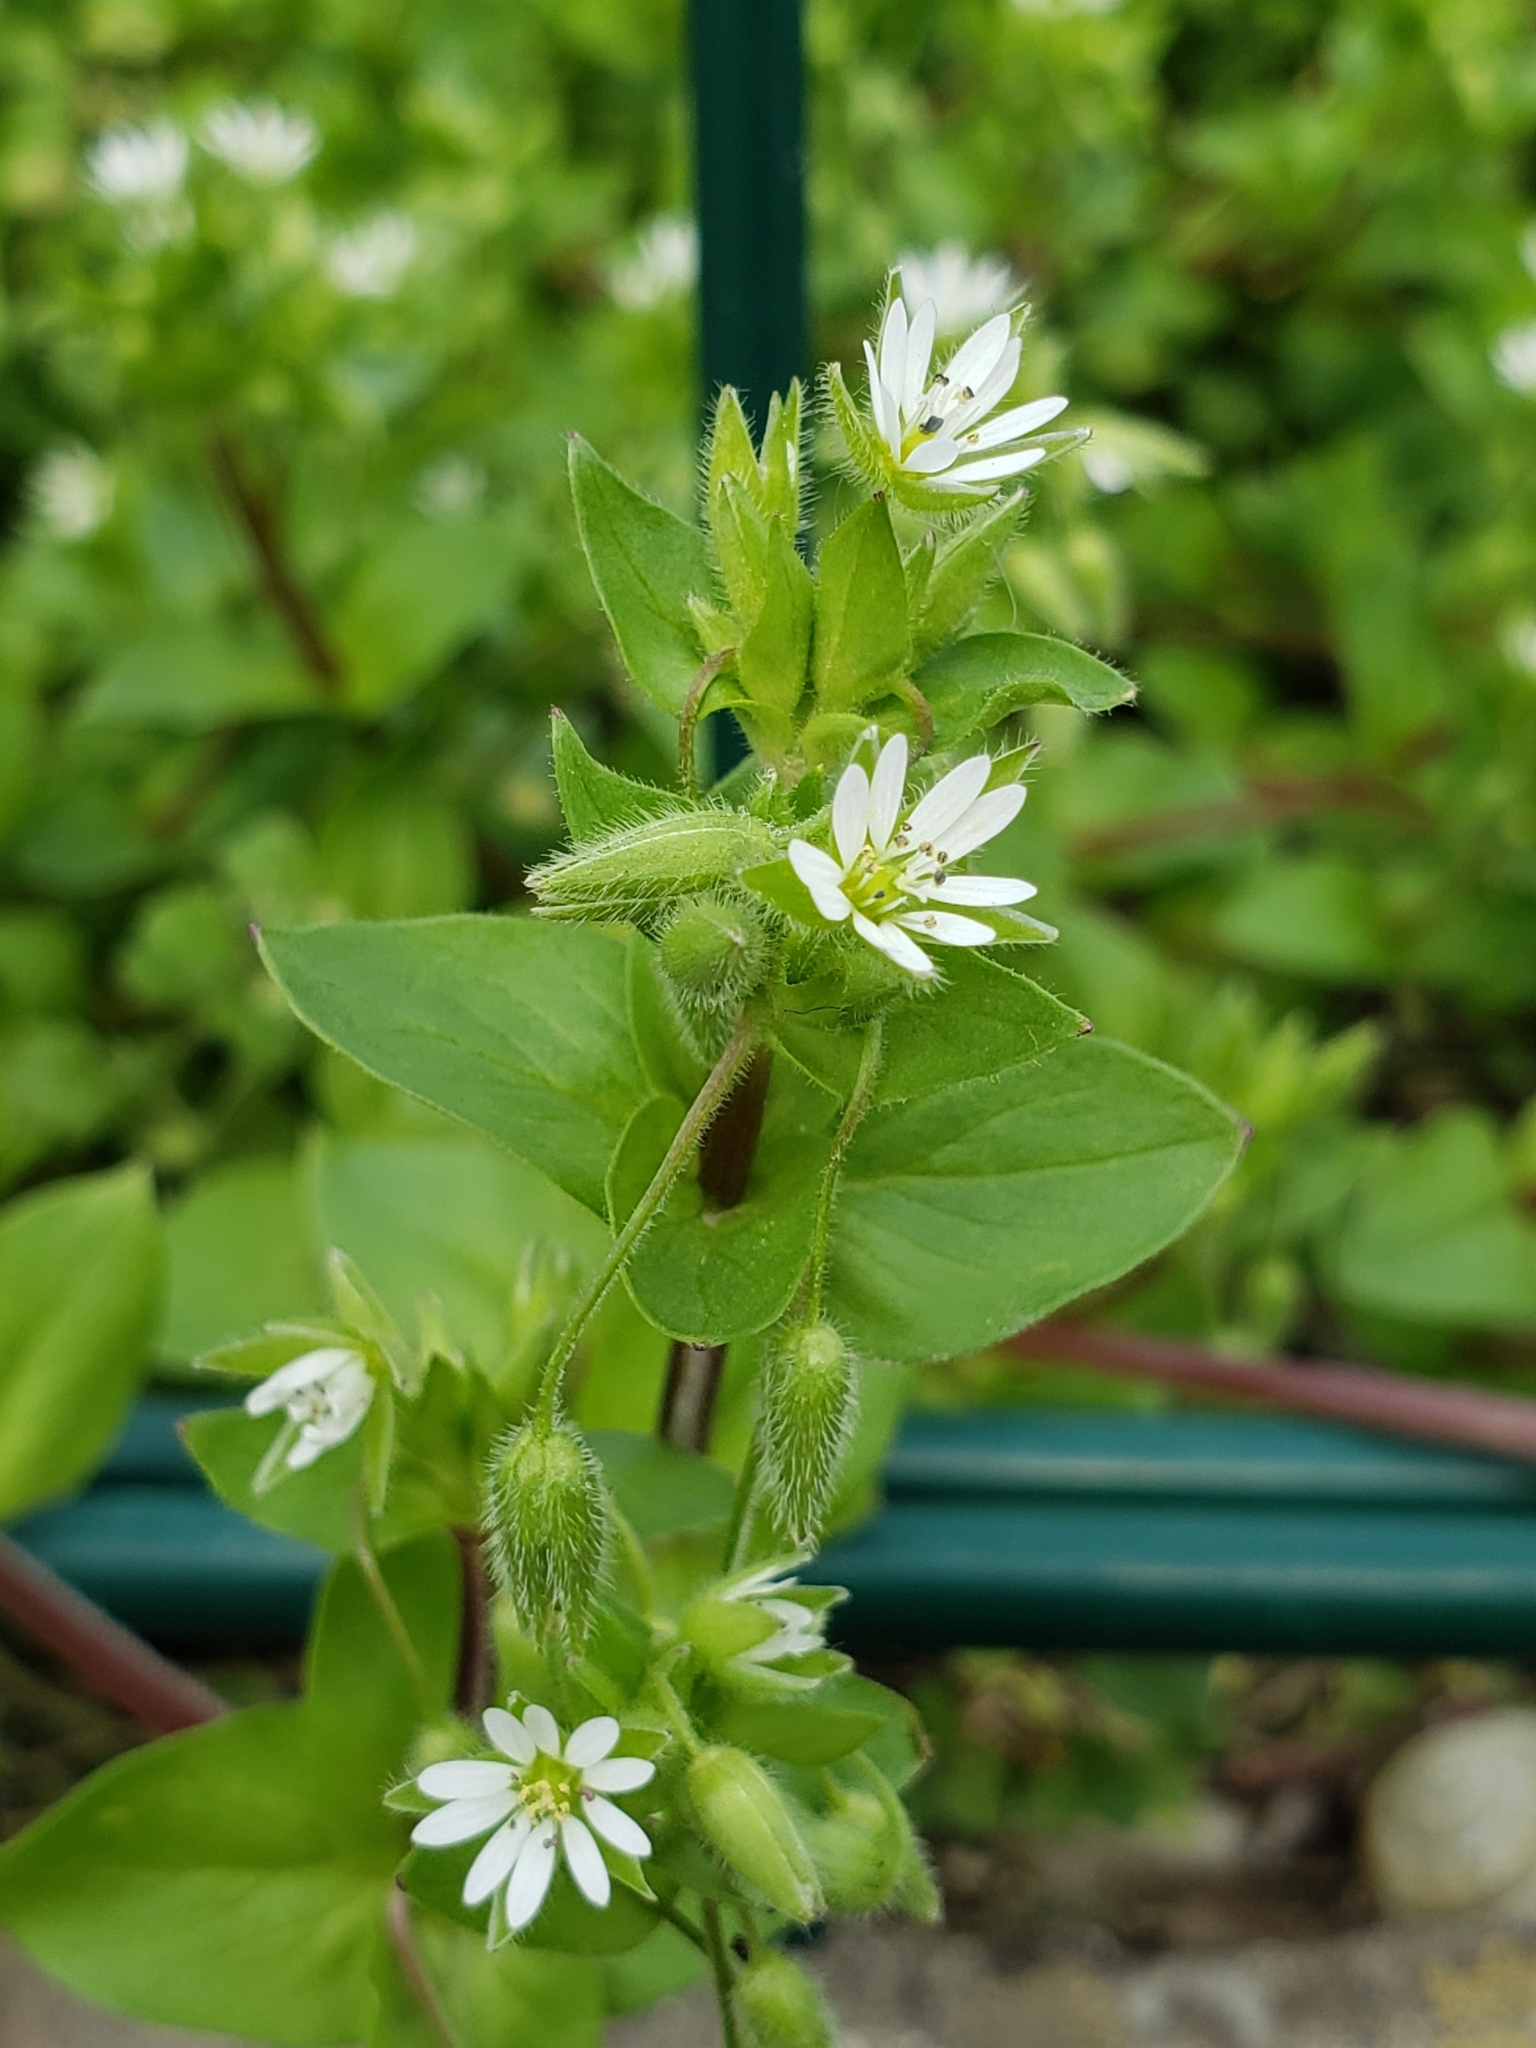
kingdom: Plantae
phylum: Tracheophyta
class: Magnoliopsida
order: Caryophyllales
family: Caryophyllaceae
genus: Stellaria
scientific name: Stellaria media
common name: Common chickweed
